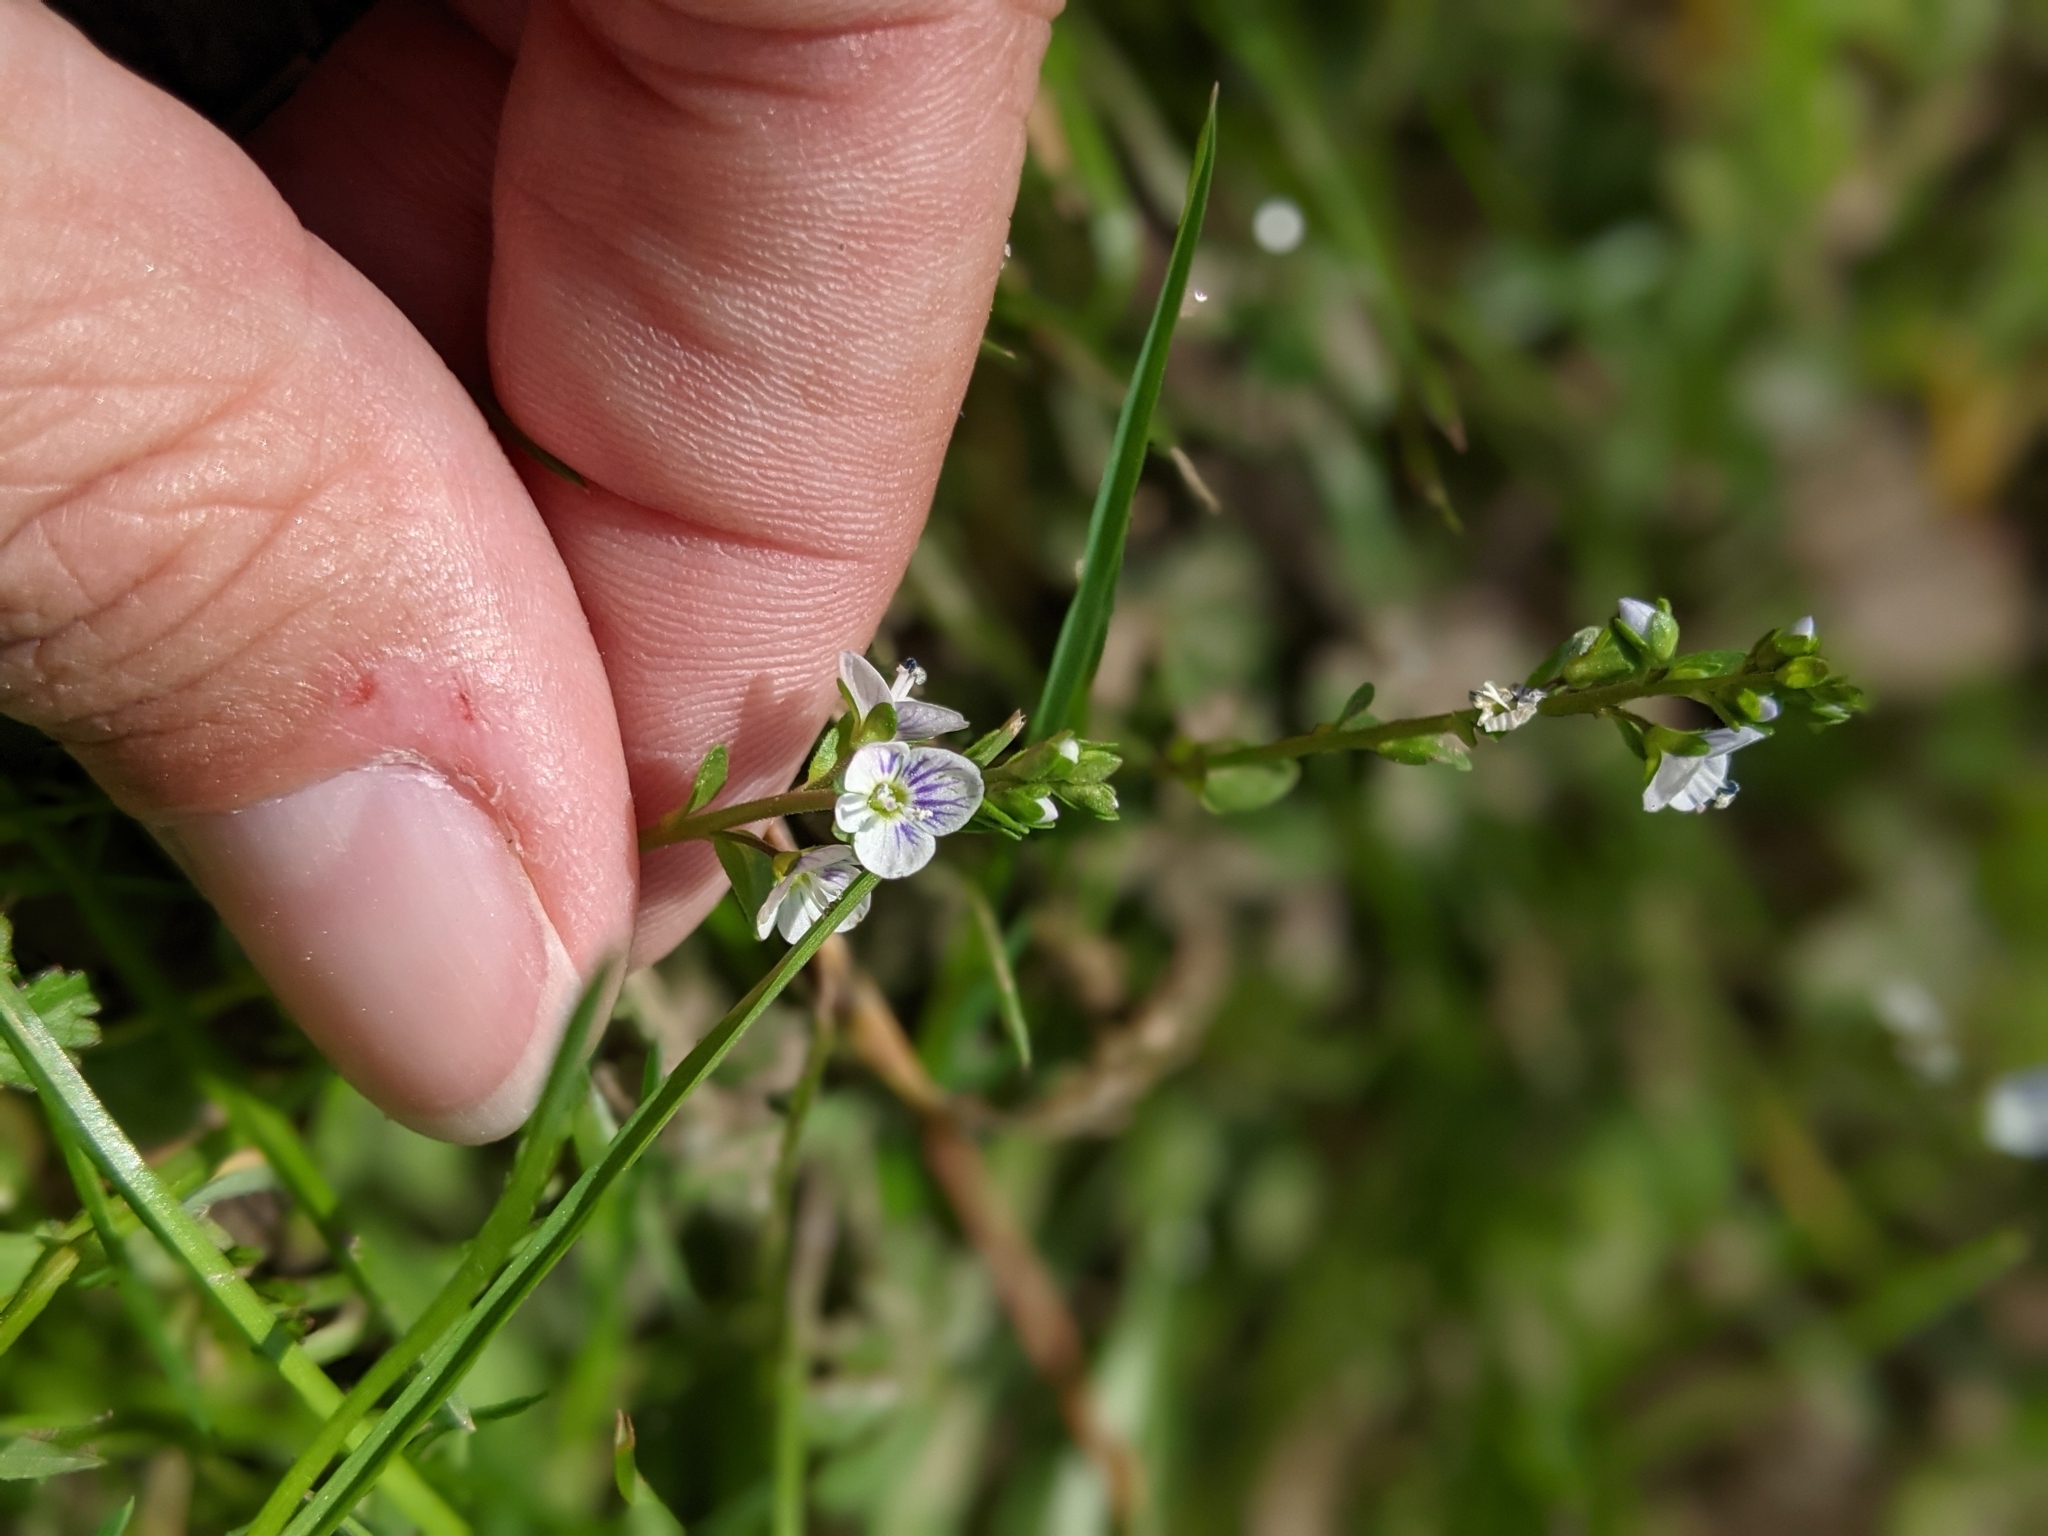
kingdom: Plantae
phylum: Tracheophyta
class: Magnoliopsida
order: Lamiales
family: Plantaginaceae
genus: Veronica
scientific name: Veronica serpyllifolia
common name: Thyme-leaved speedwell
